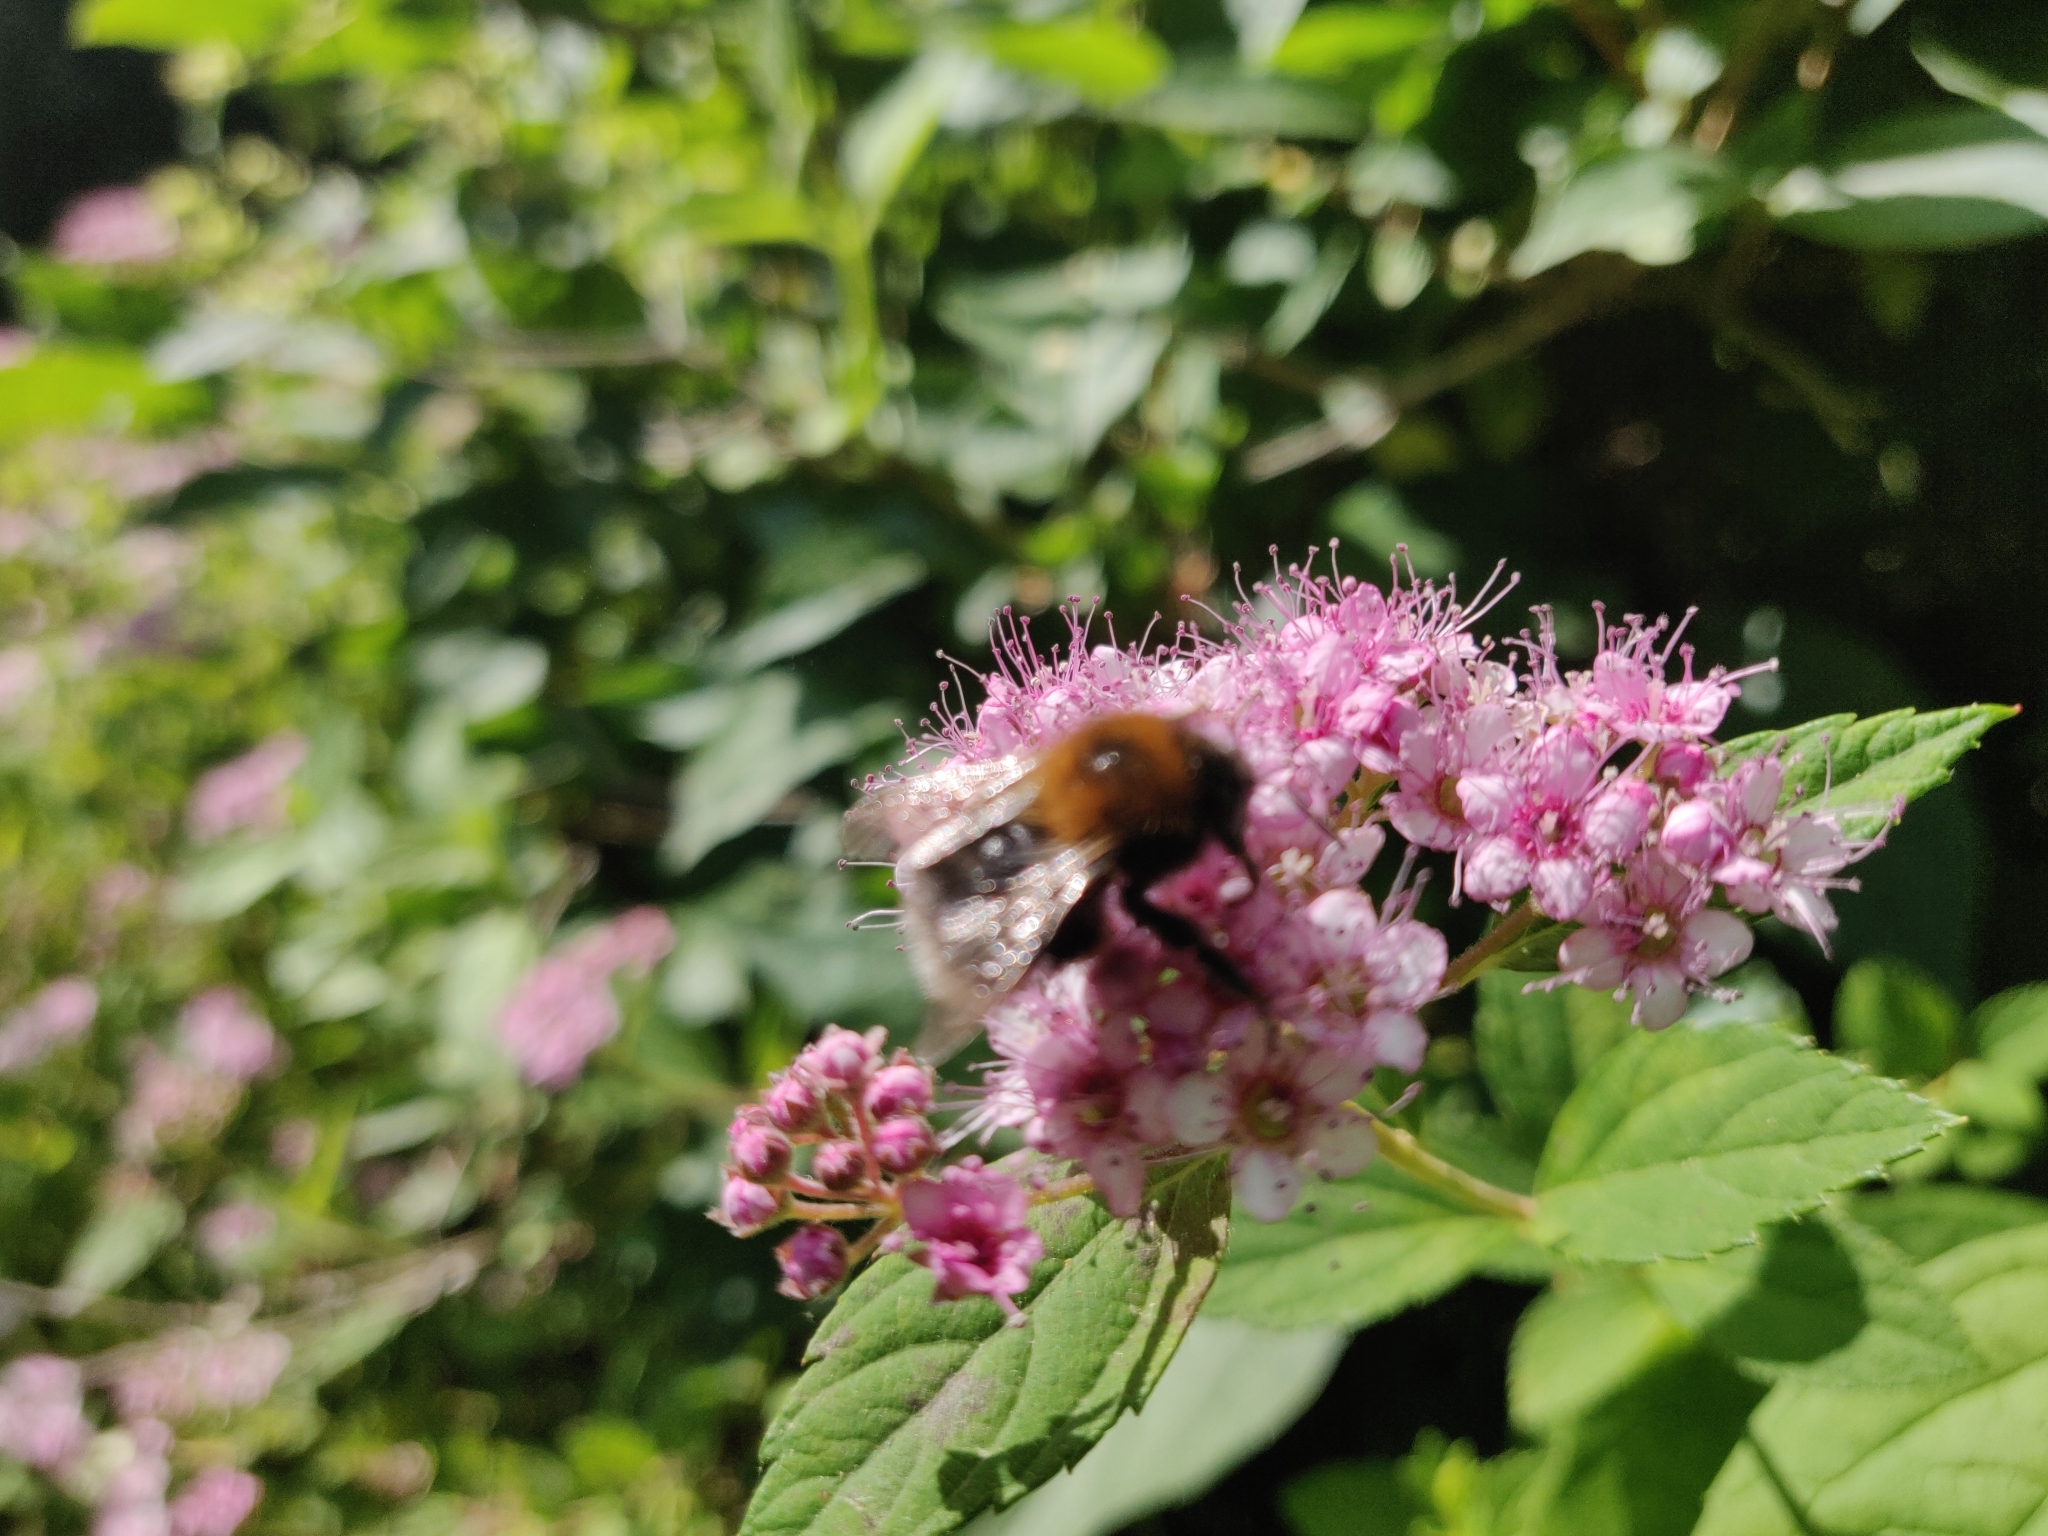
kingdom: Animalia
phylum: Arthropoda
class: Insecta
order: Hymenoptera
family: Apidae
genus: Bombus
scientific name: Bombus hypnorum
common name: New garden bumblebee
